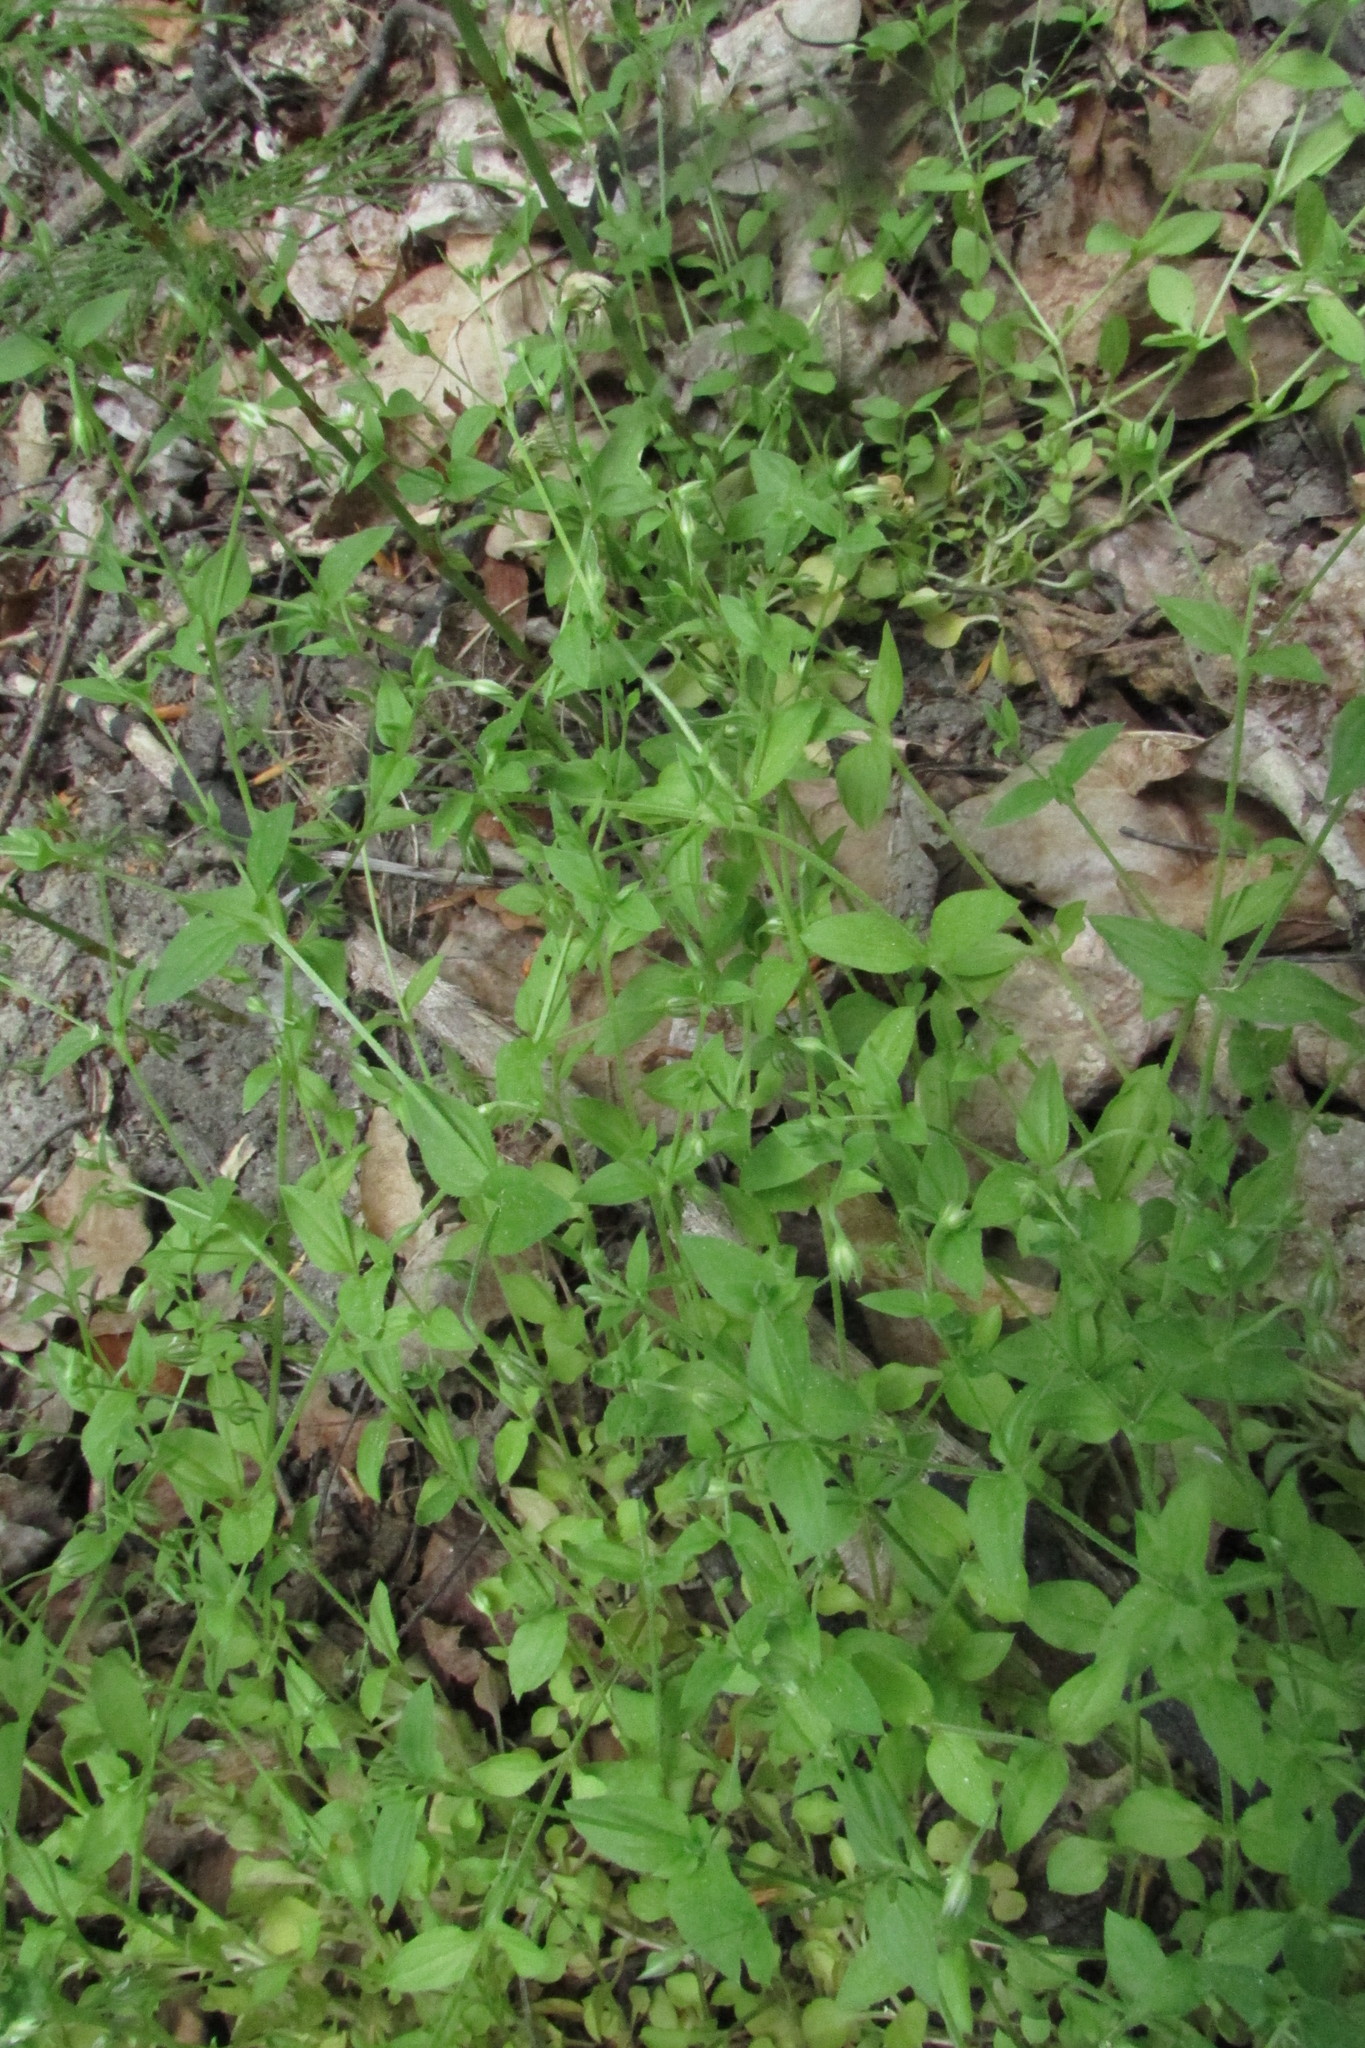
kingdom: Plantae
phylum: Tracheophyta
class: Magnoliopsida
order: Caryophyllales
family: Caryophyllaceae
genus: Moehringia
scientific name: Moehringia trinervia
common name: Three-nerved sandwort
